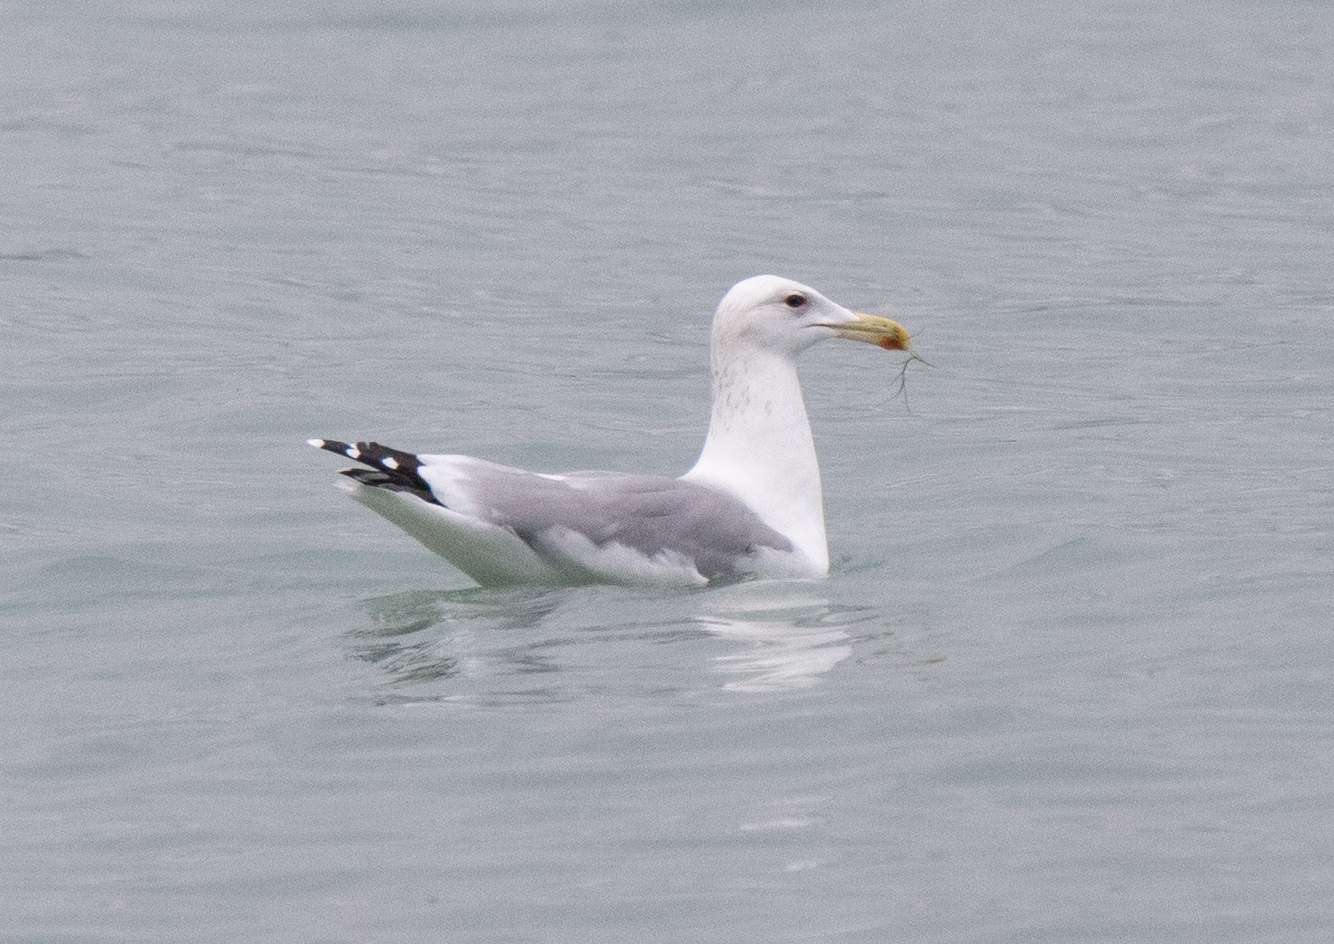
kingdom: Animalia
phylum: Chordata
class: Aves
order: Charadriiformes
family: Laridae
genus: Larus
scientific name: Larus cachinnans
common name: Caspian gull
